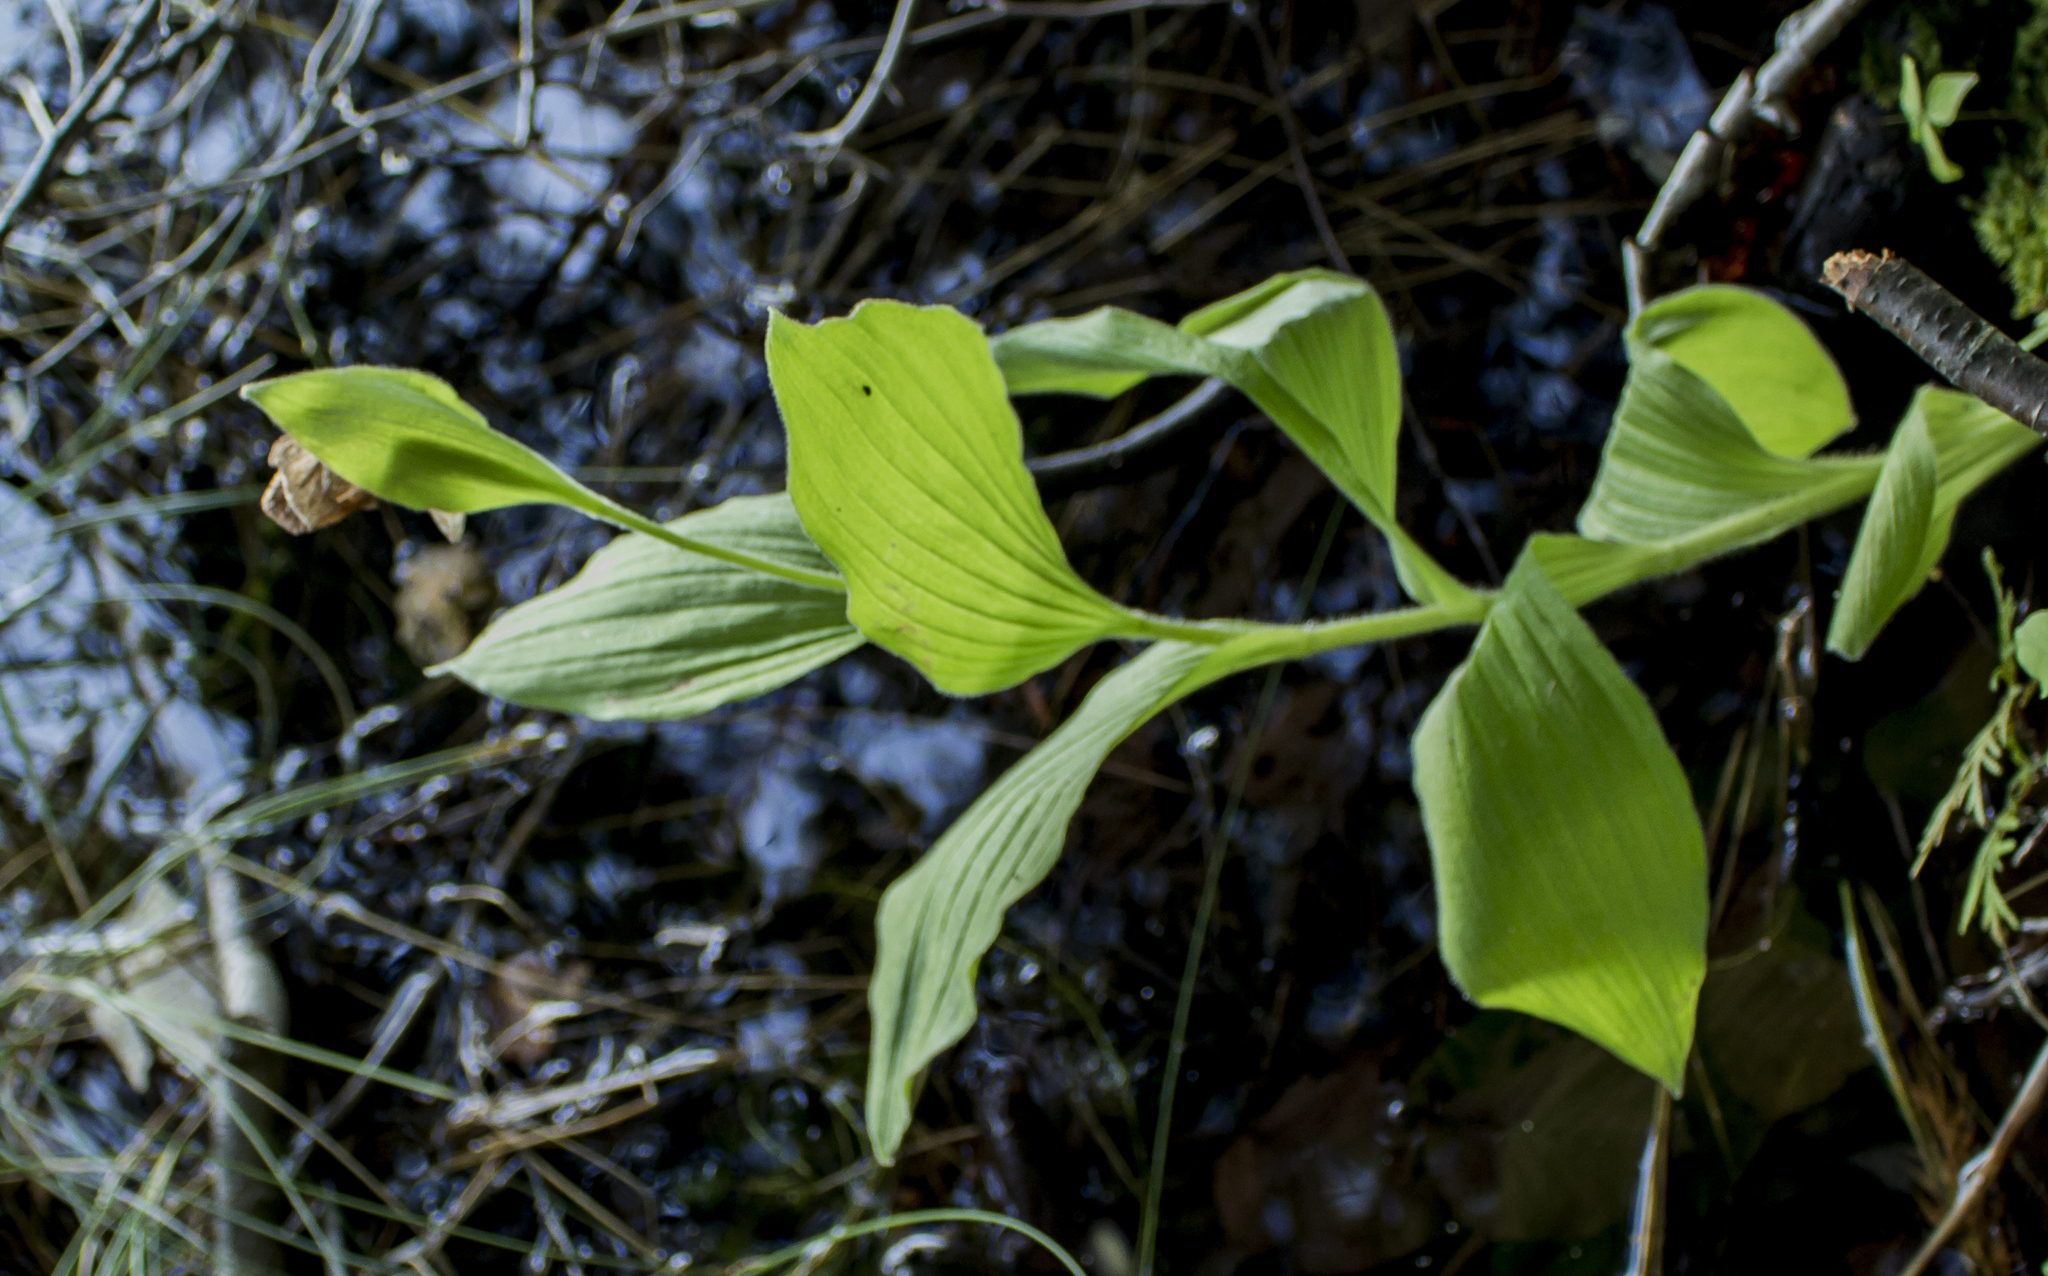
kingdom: Plantae
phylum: Tracheophyta
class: Liliopsida
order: Asparagales
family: Orchidaceae
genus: Cypripedium
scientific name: Cypripedium reginae
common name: Queen lady's-slipper
